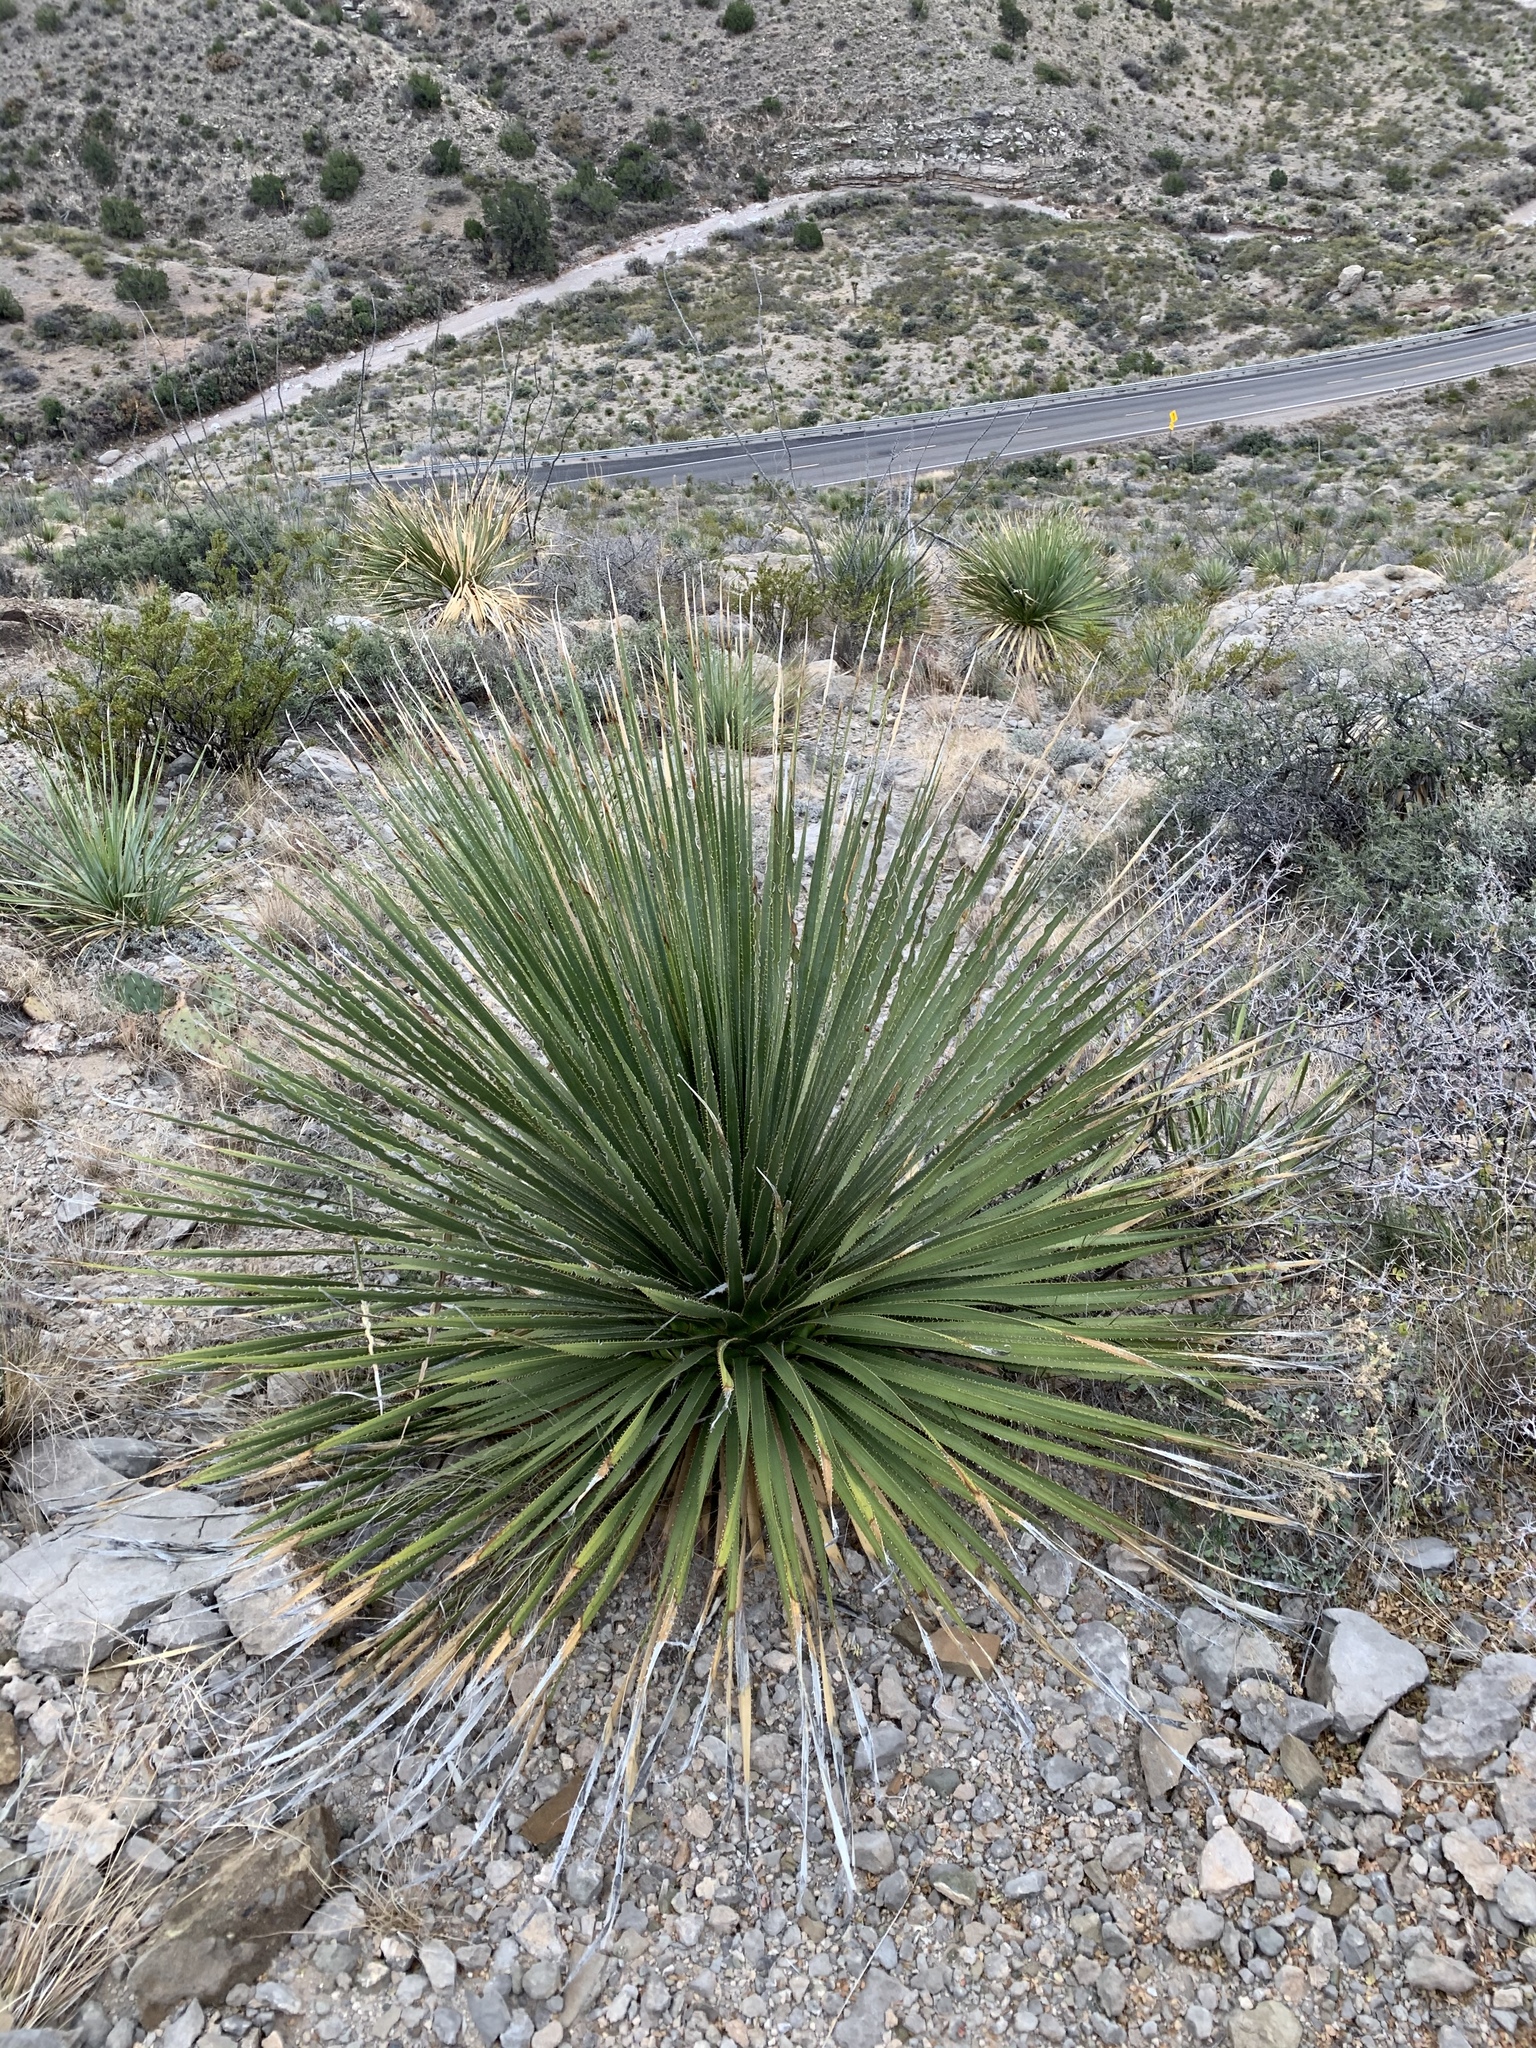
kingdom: Plantae
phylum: Tracheophyta
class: Liliopsida
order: Asparagales
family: Asparagaceae
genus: Dasylirion
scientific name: Dasylirion wheeleri
